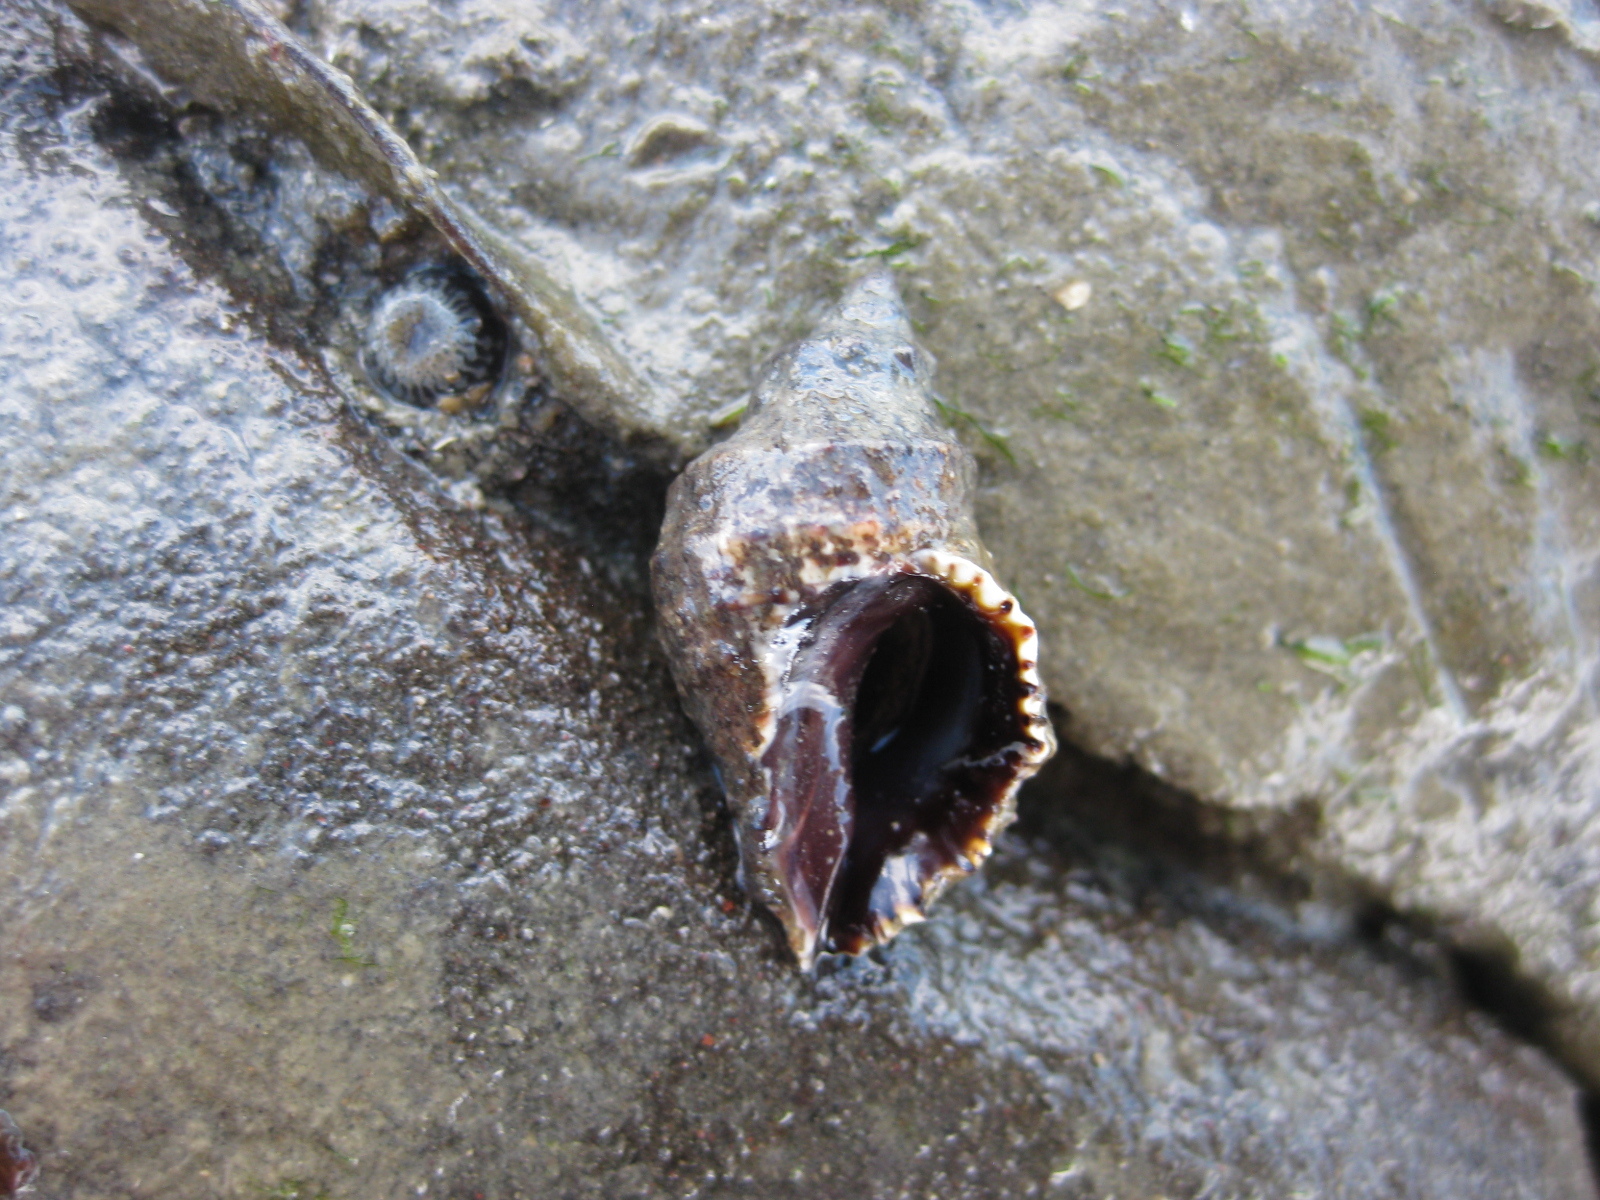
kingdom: Animalia
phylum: Mollusca
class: Gastropoda
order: Neogastropoda
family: Muricidae
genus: Haustrum
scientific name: Haustrum scobina
